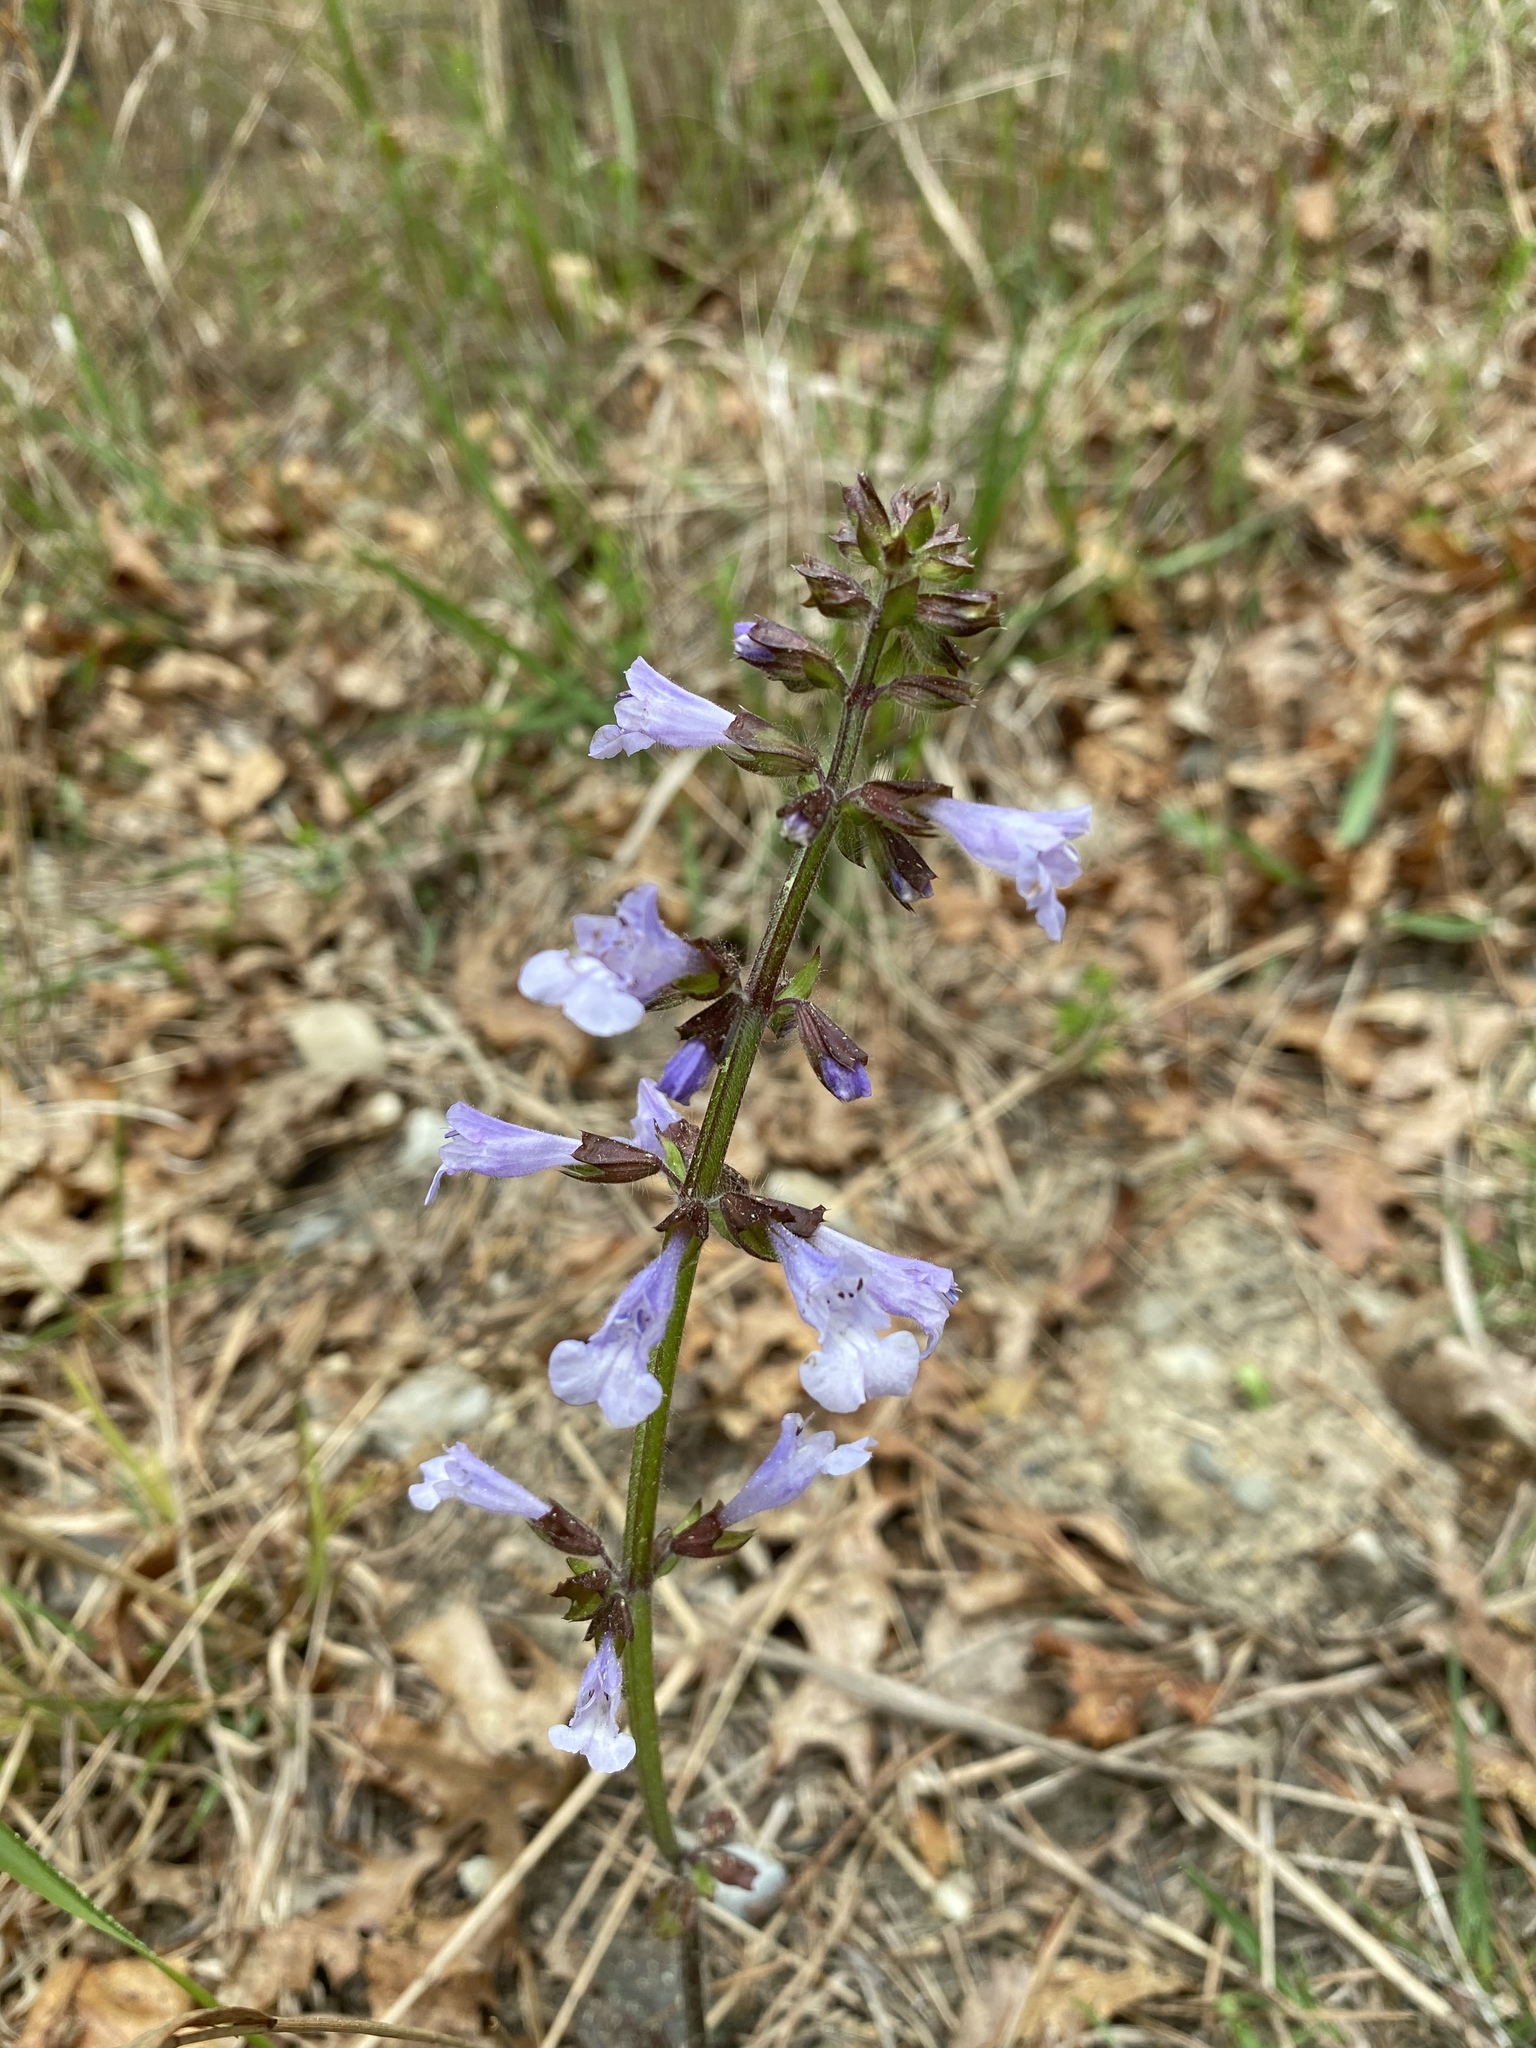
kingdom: Plantae
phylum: Tracheophyta
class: Magnoliopsida
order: Lamiales
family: Lamiaceae
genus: Salvia
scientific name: Salvia lyrata
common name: Cancerweed
